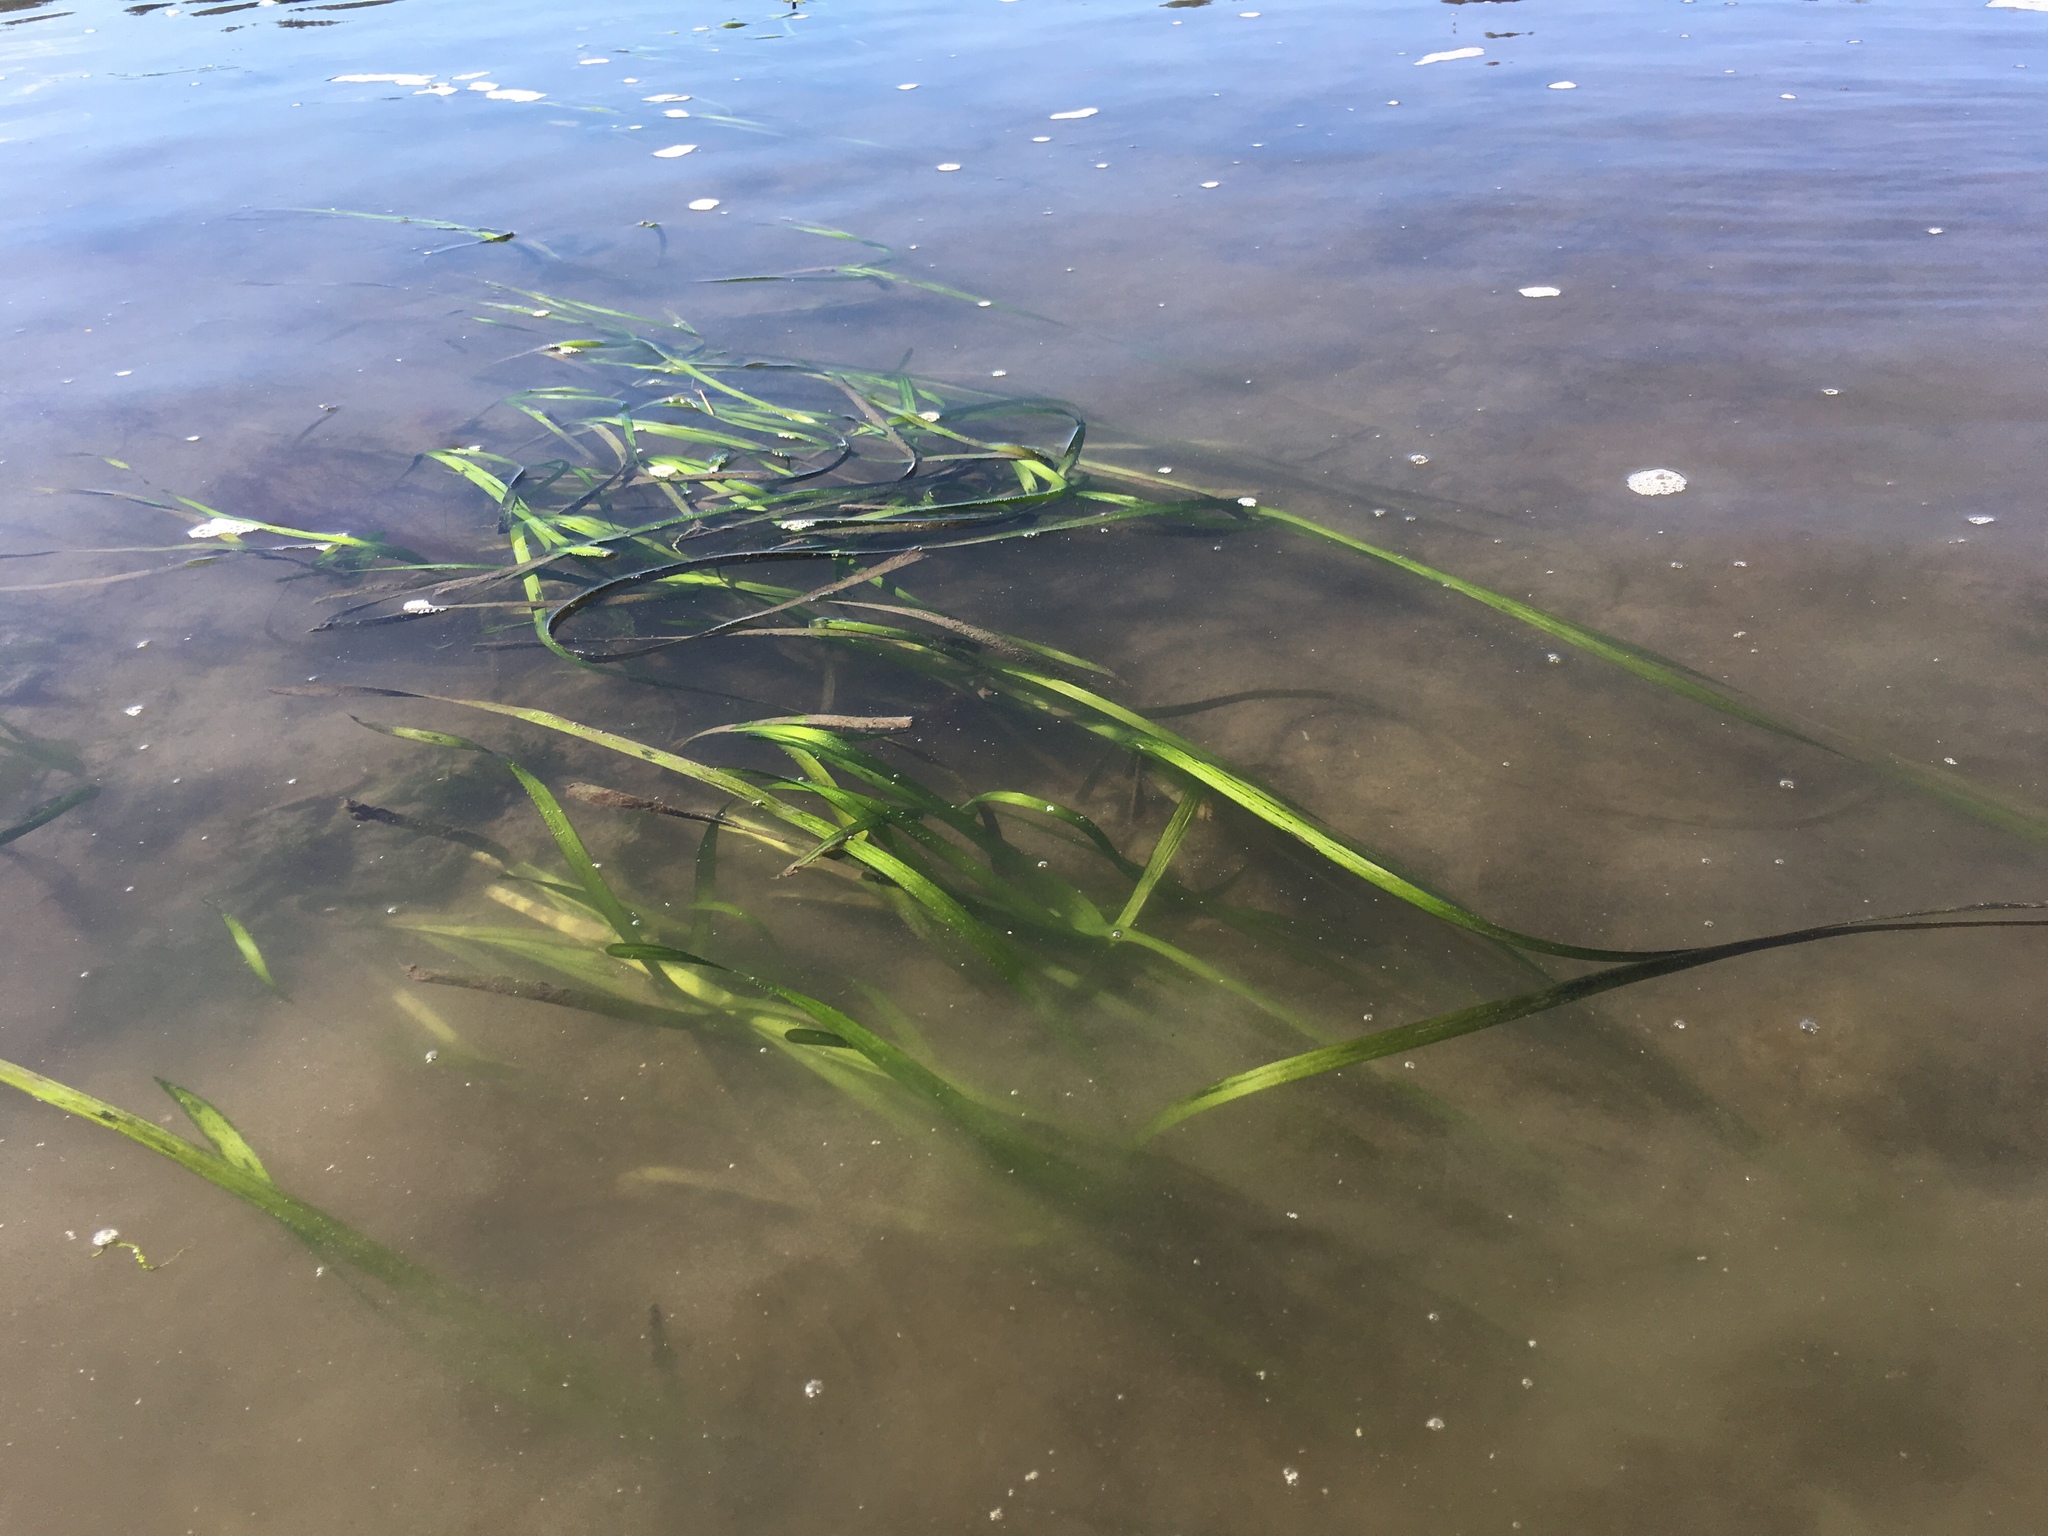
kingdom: Plantae
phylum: Tracheophyta
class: Liliopsida
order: Alismatales
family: Zosteraceae
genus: Zostera
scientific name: Zostera marina
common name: Eelgrass
